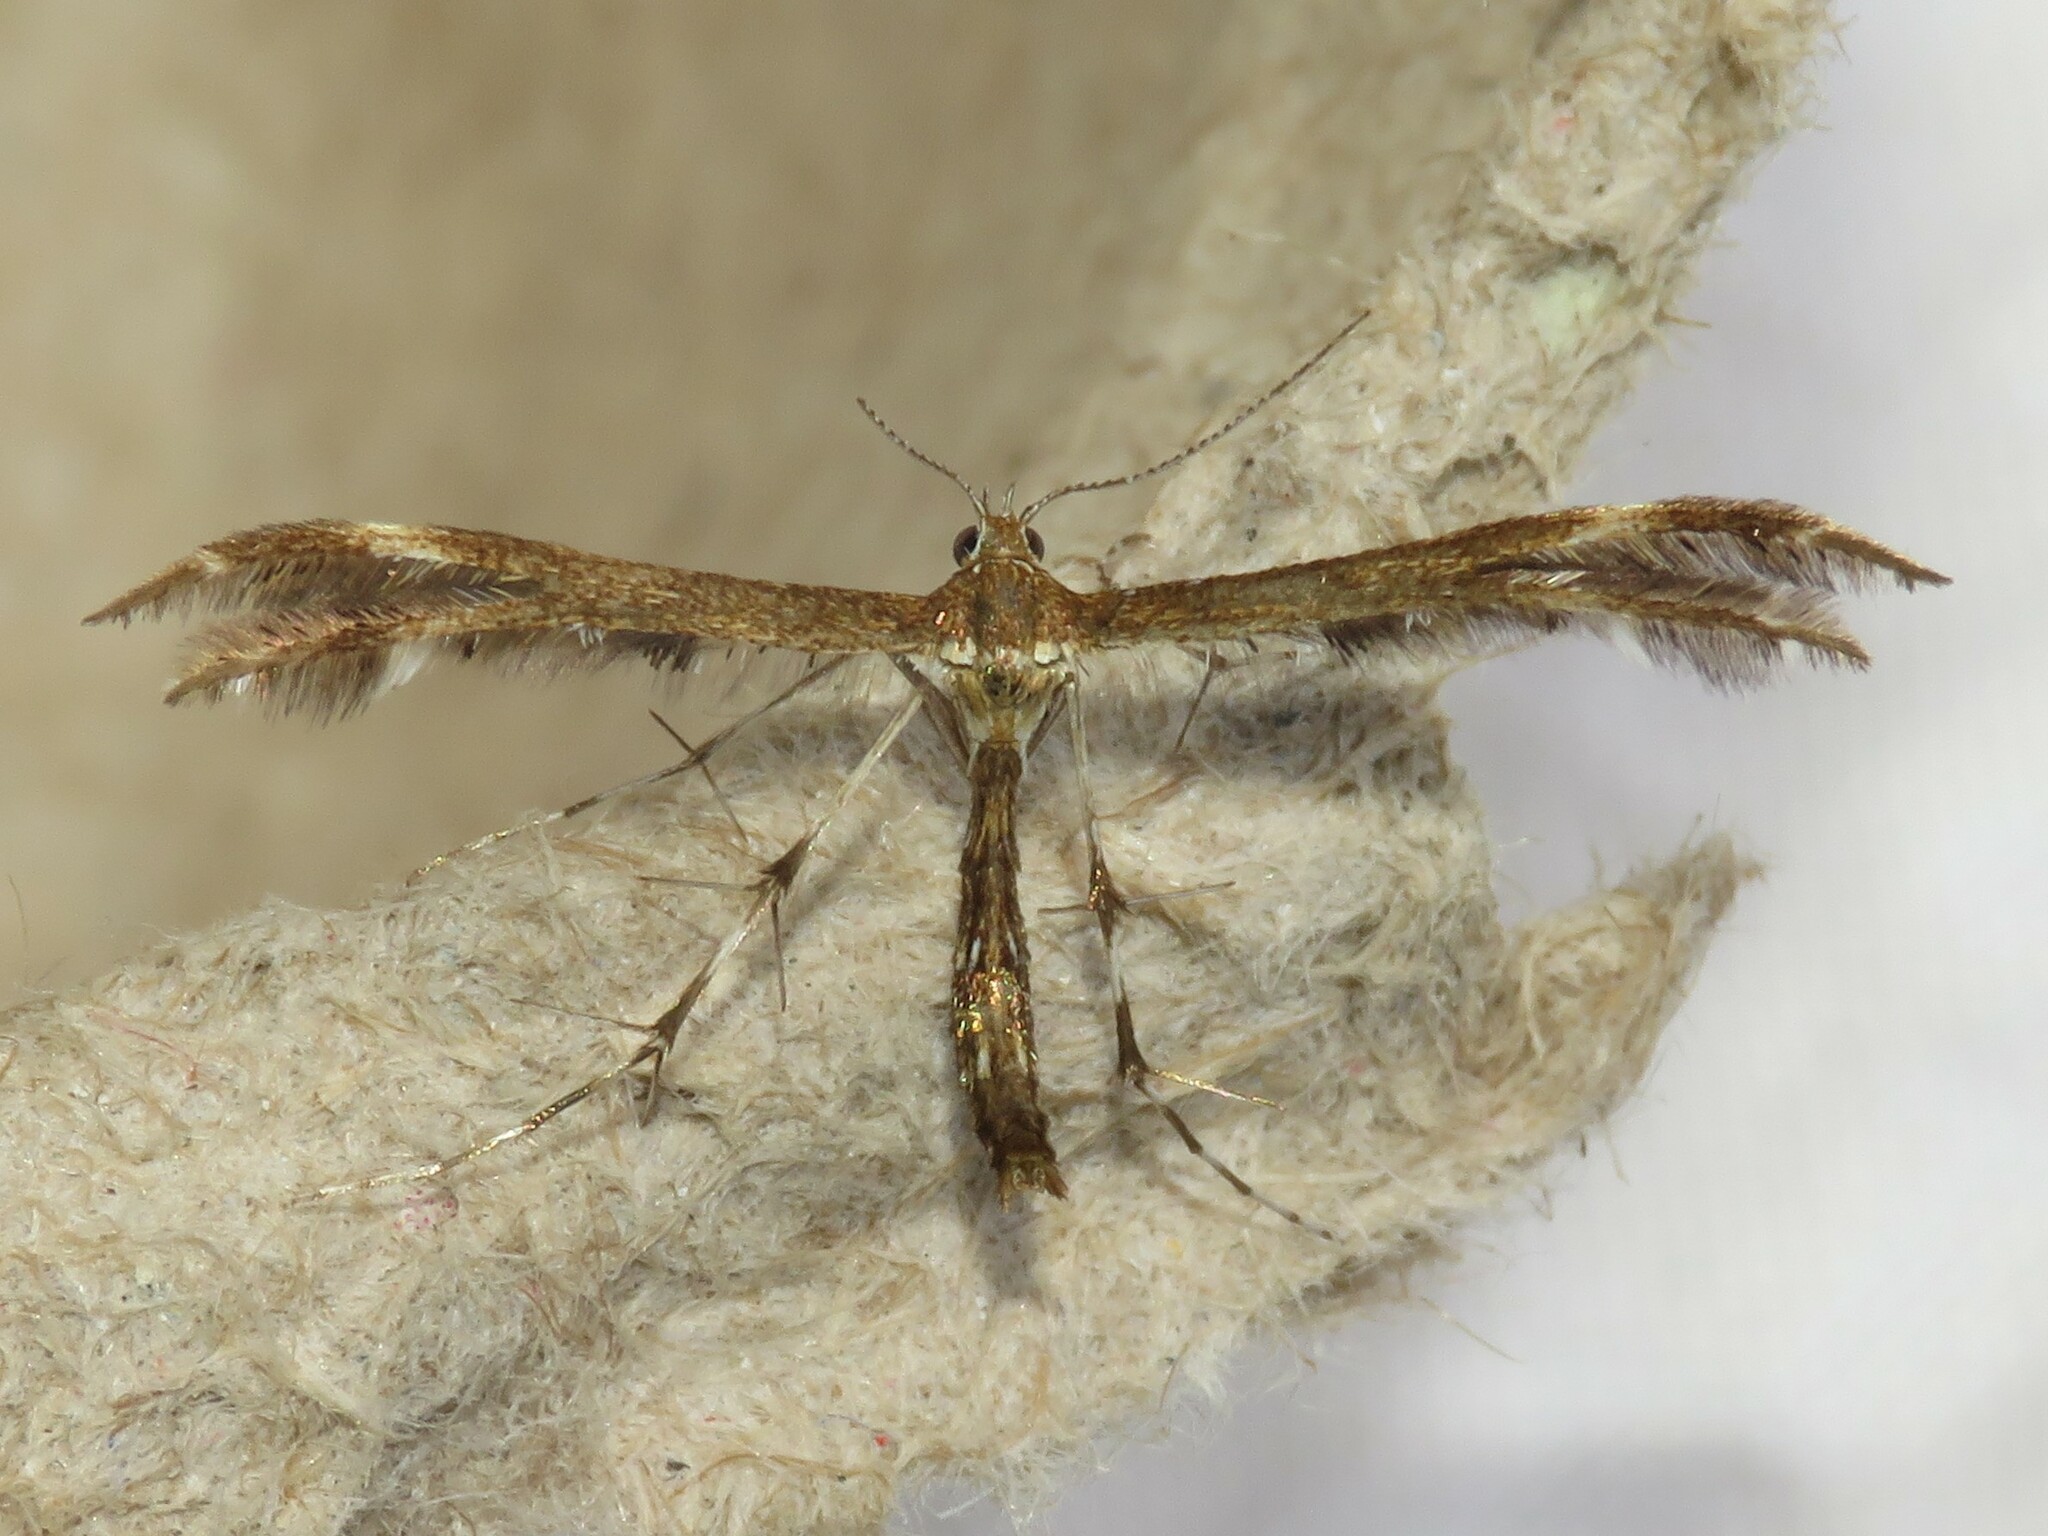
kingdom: Animalia
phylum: Arthropoda
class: Insecta
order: Lepidoptera
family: Pterophoridae
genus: Dejongia
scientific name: Dejongia lobidactylus
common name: Lobed plume moth
